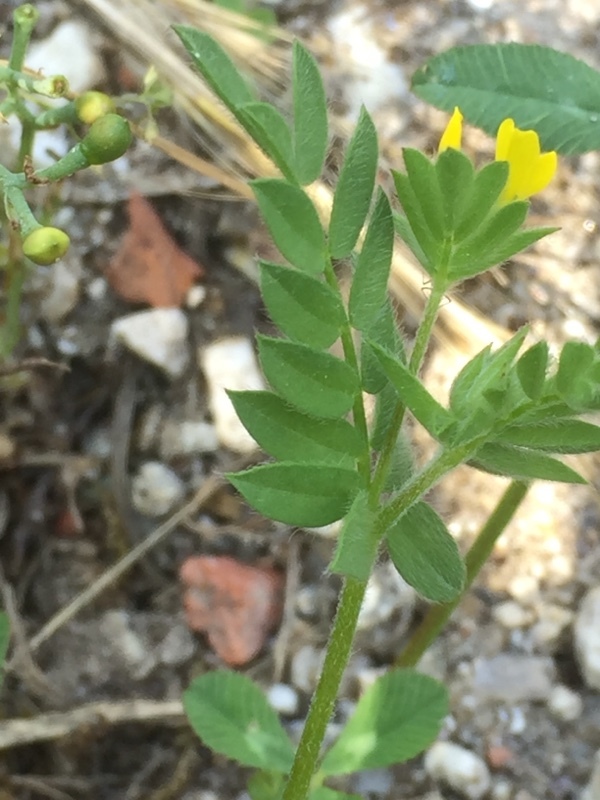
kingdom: Plantae
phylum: Tracheophyta
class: Magnoliopsida
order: Fabales
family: Fabaceae
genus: Ornithopus
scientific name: Ornithopus compressus
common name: Yellow serradella
